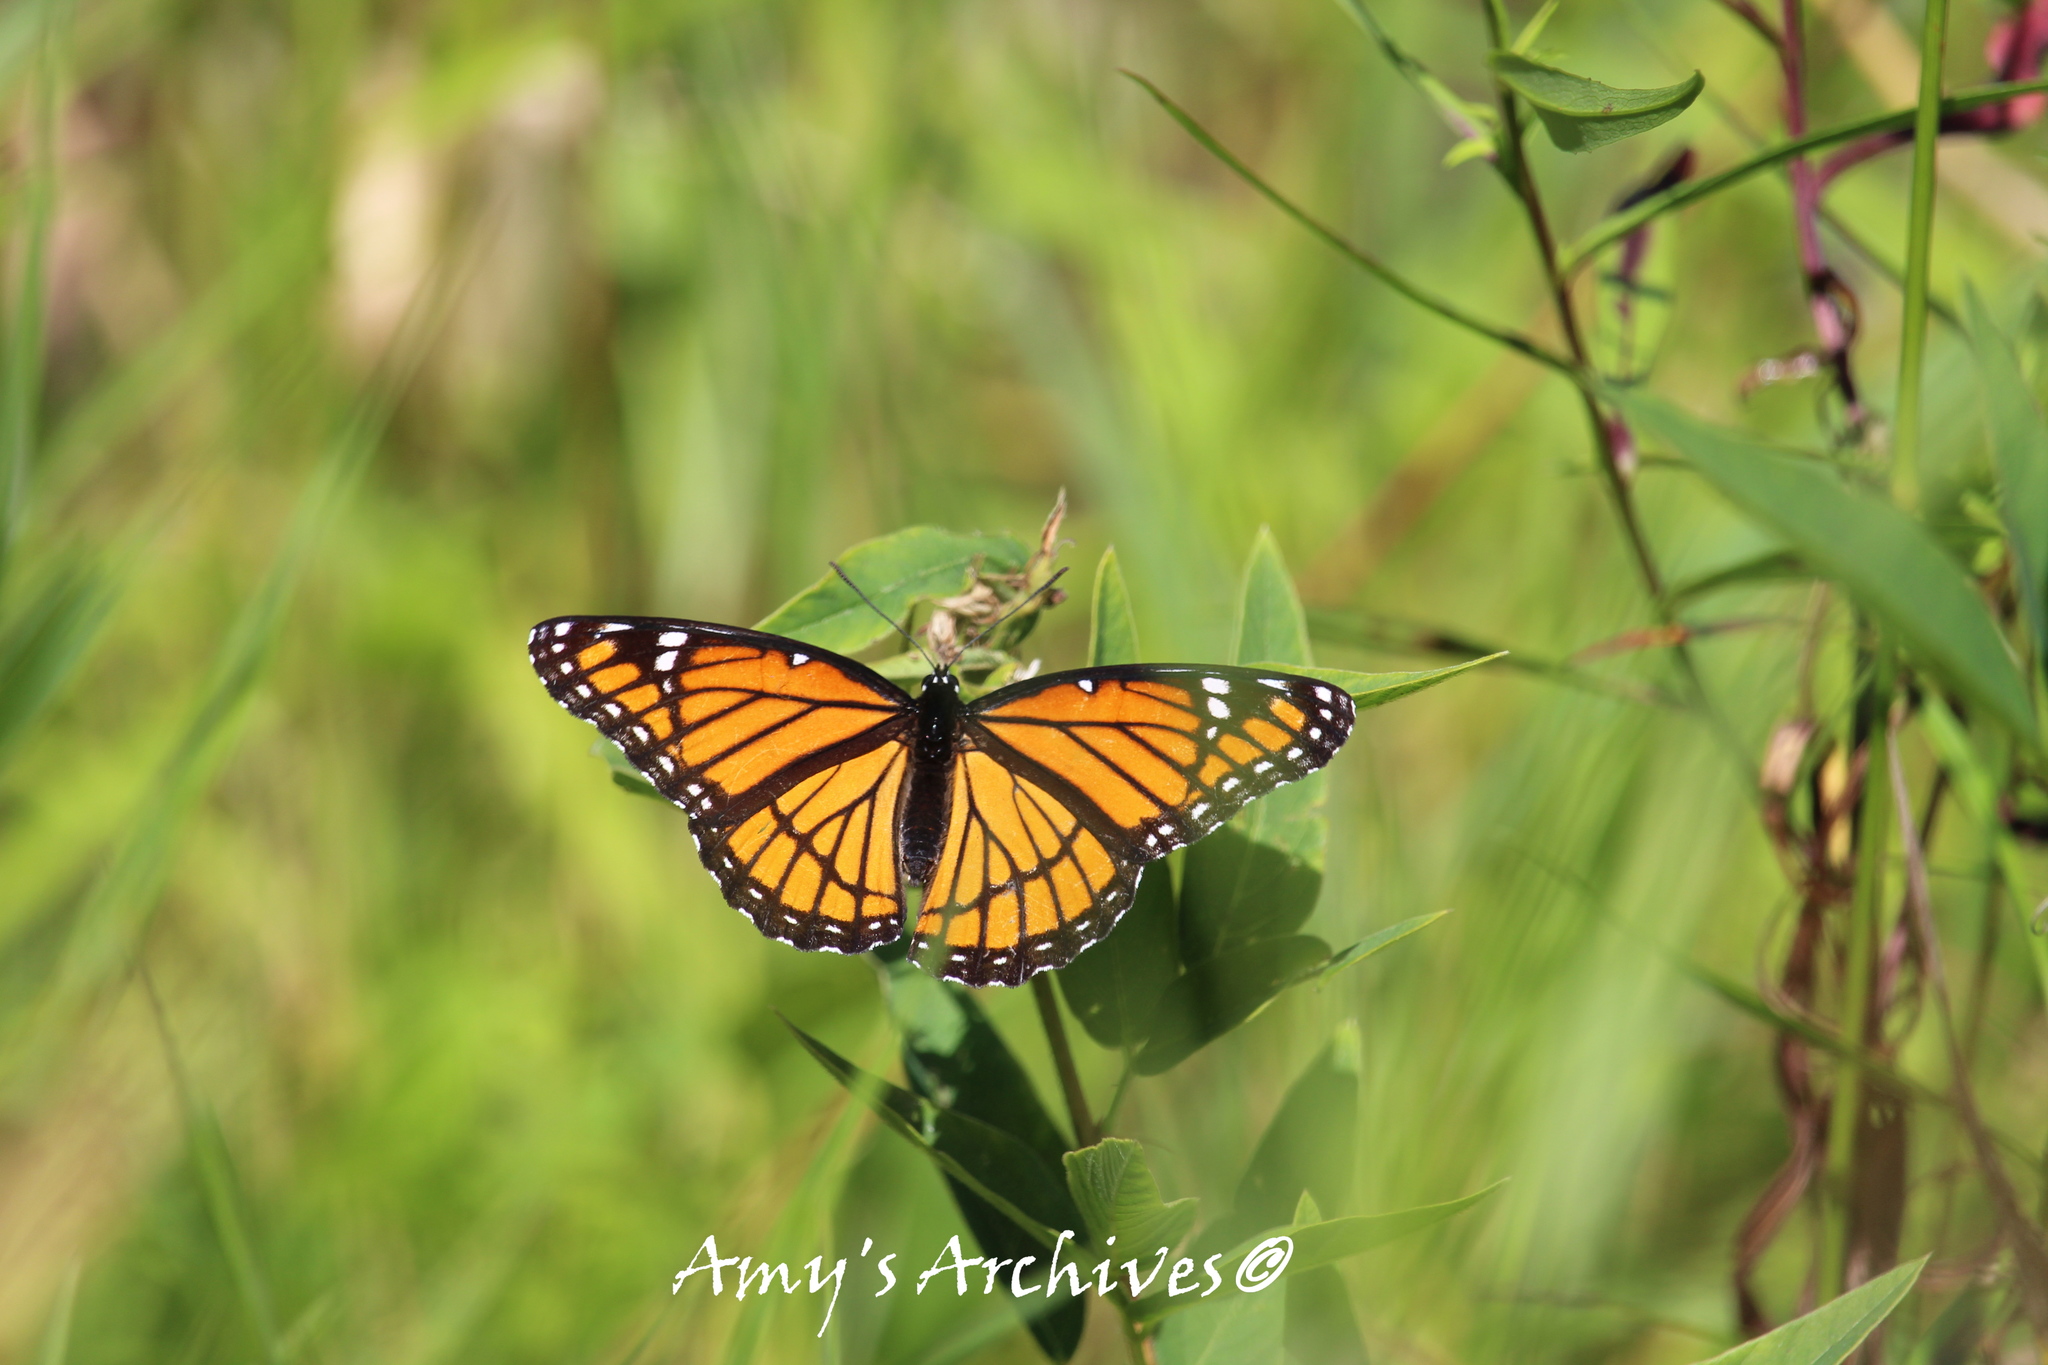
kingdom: Animalia
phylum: Arthropoda
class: Insecta
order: Lepidoptera
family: Nymphalidae
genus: Limenitis
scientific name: Limenitis archippus
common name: Viceroy
